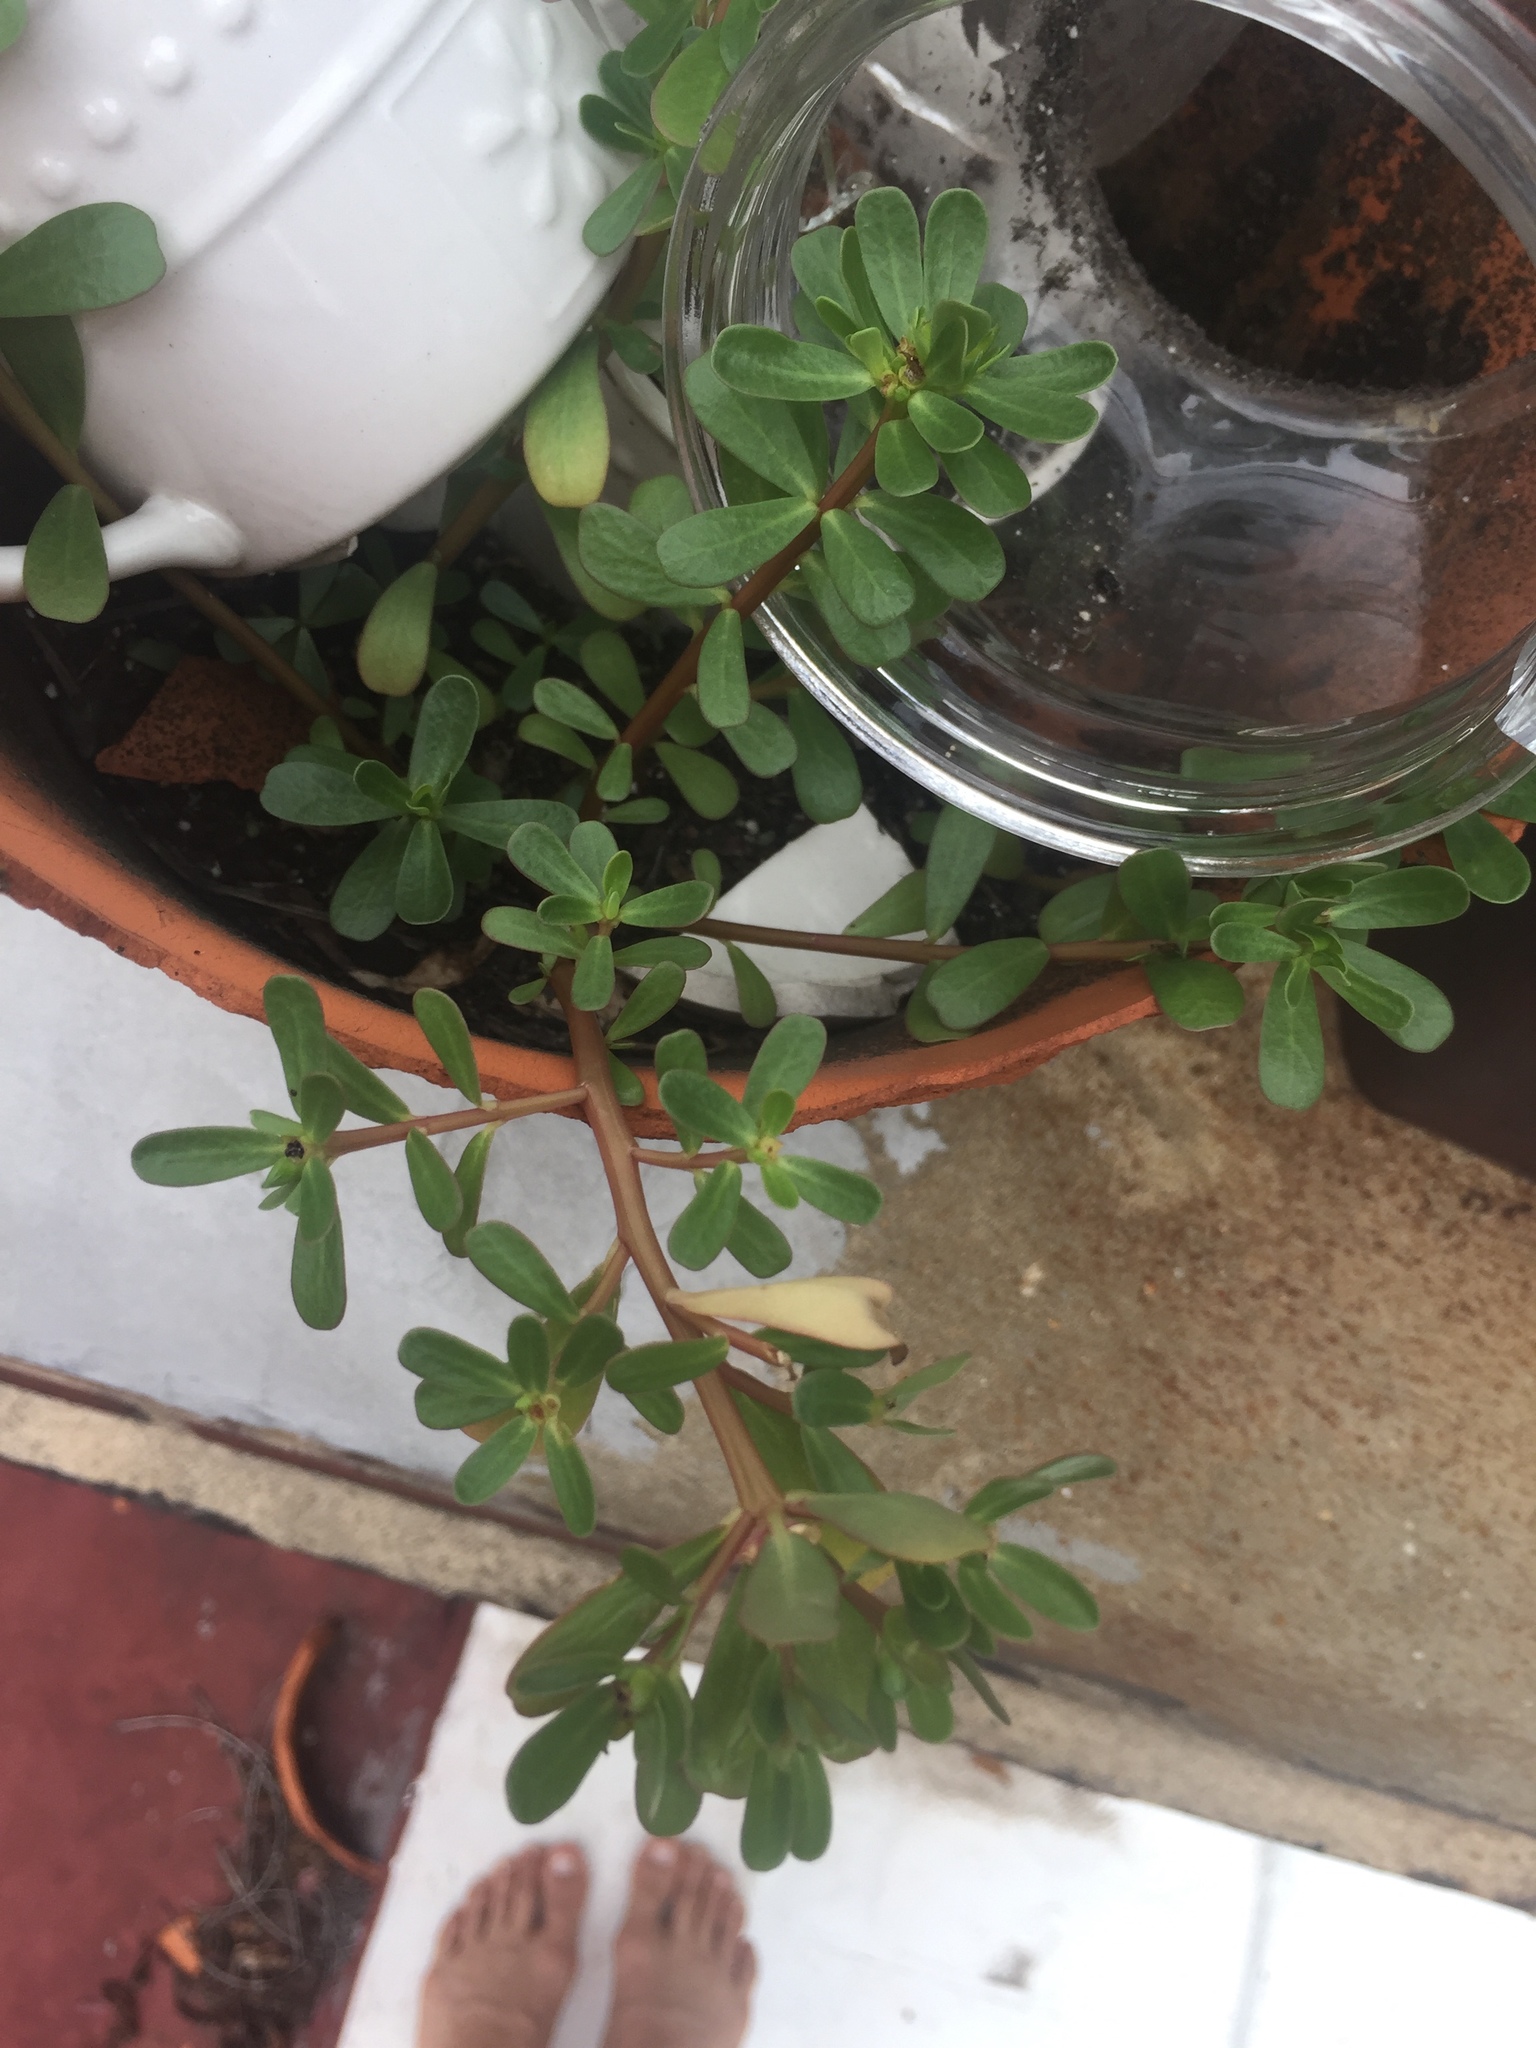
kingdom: Plantae
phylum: Tracheophyta
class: Magnoliopsida
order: Caryophyllales
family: Portulacaceae
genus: Portulaca
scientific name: Portulaca oleracea
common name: Common purslane
